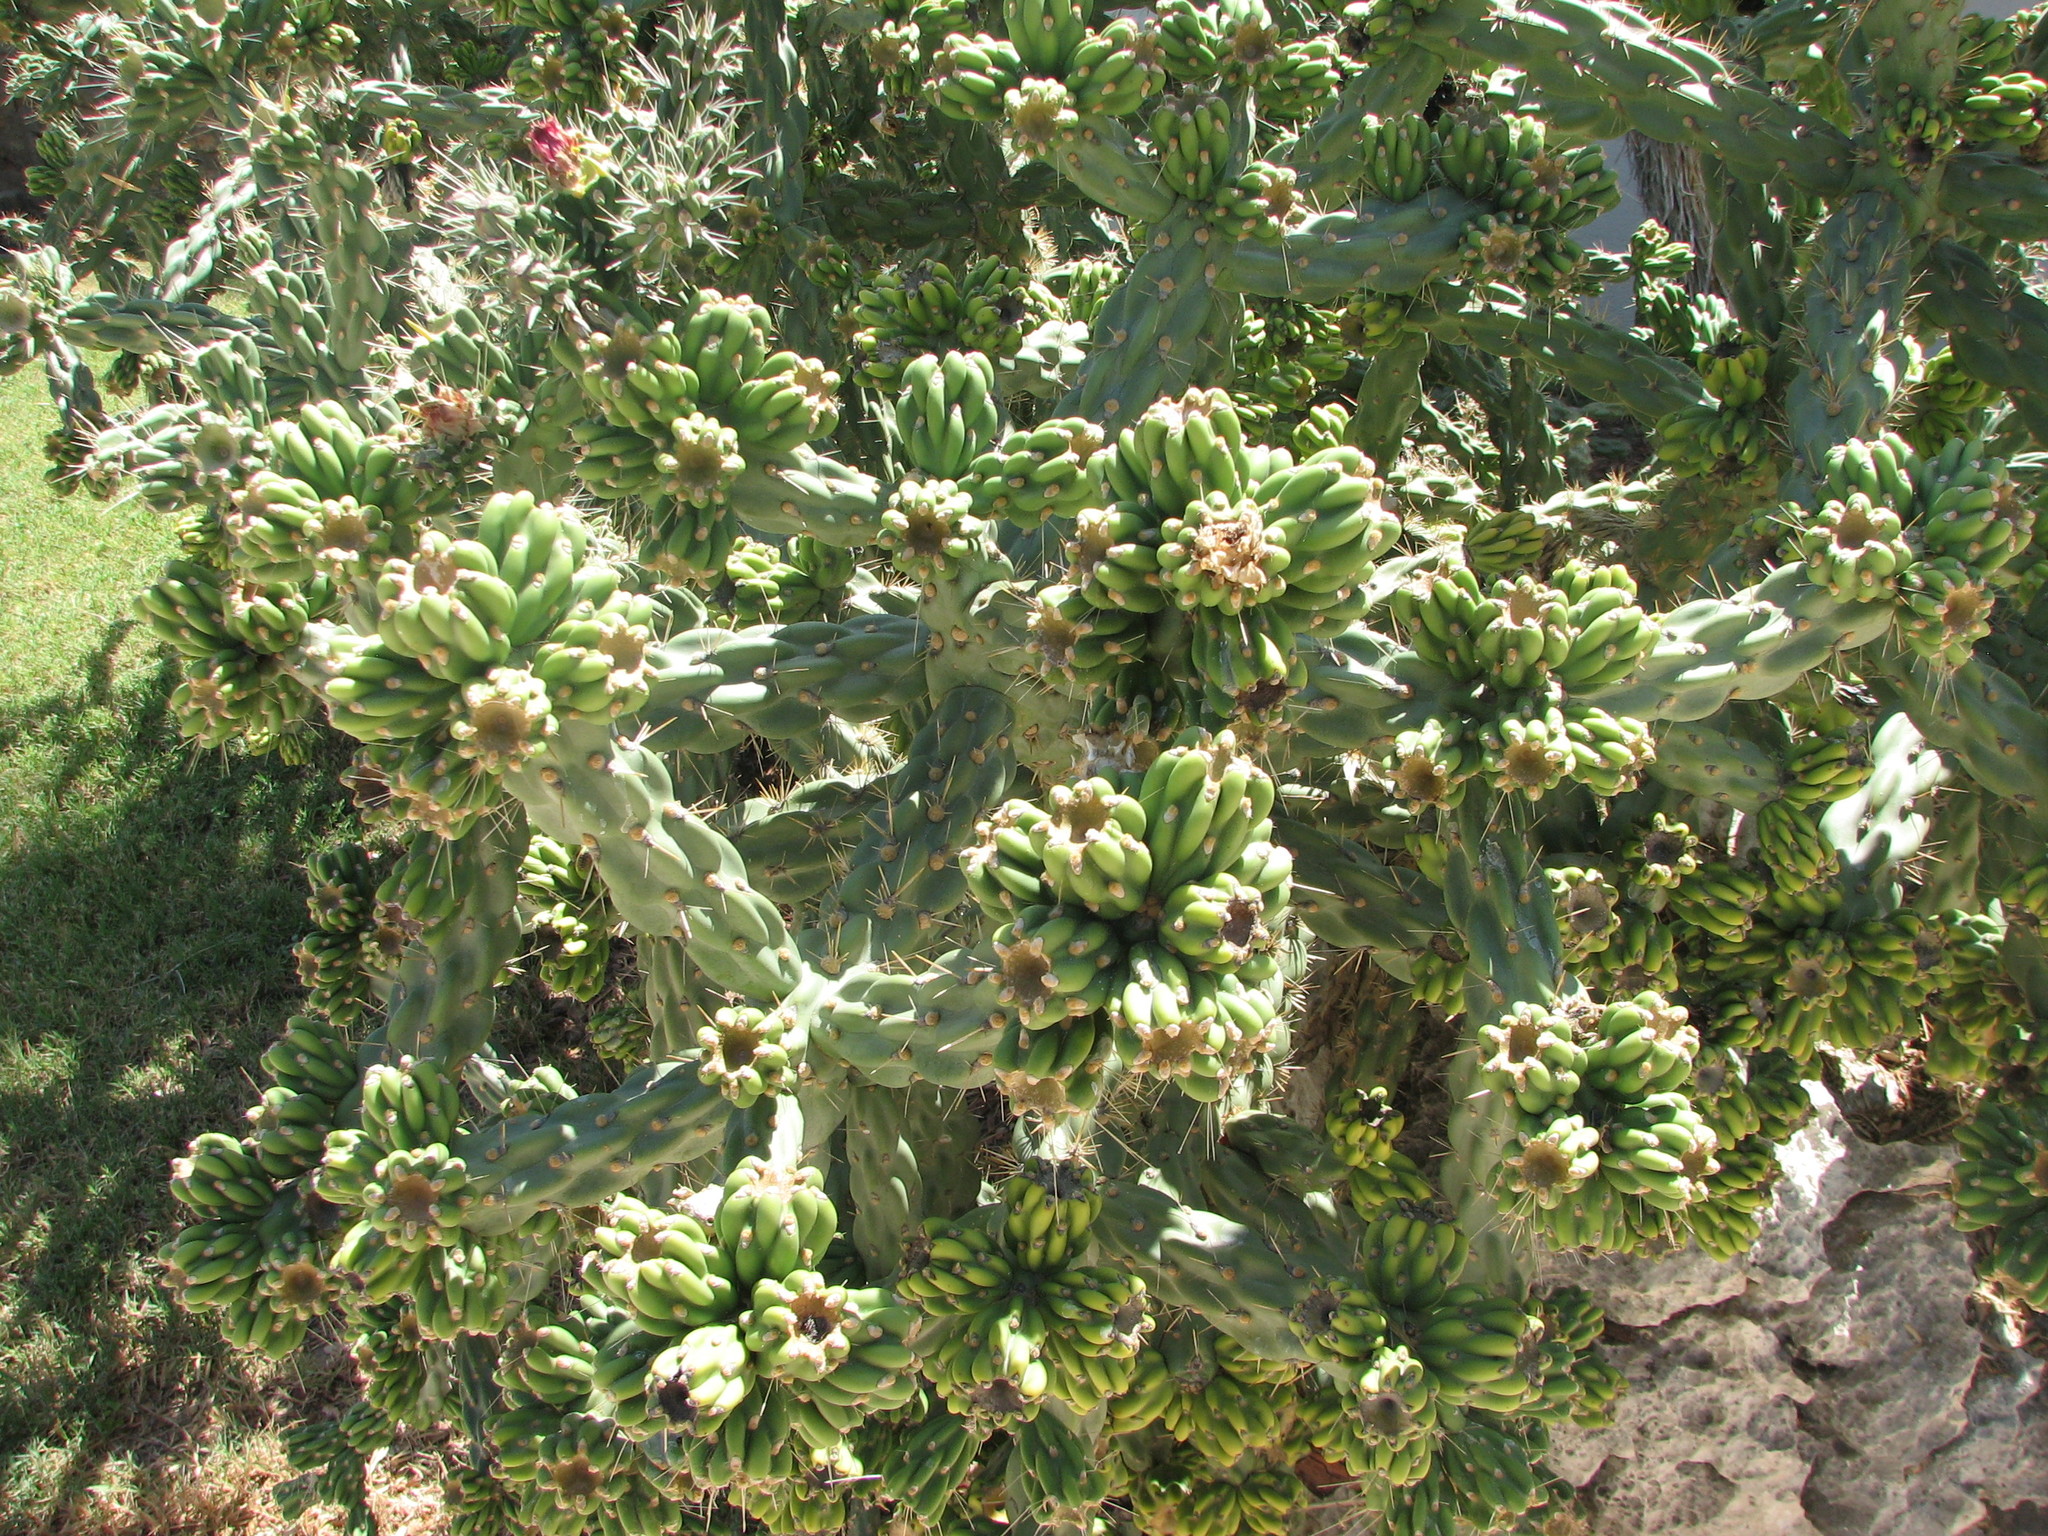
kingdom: Plantae
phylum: Tracheophyta
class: Magnoliopsida
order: Caryophyllales
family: Cactaceae
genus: Cylindropuntia
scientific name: Cylindropuntia imbricata
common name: Candelabrum cactus
